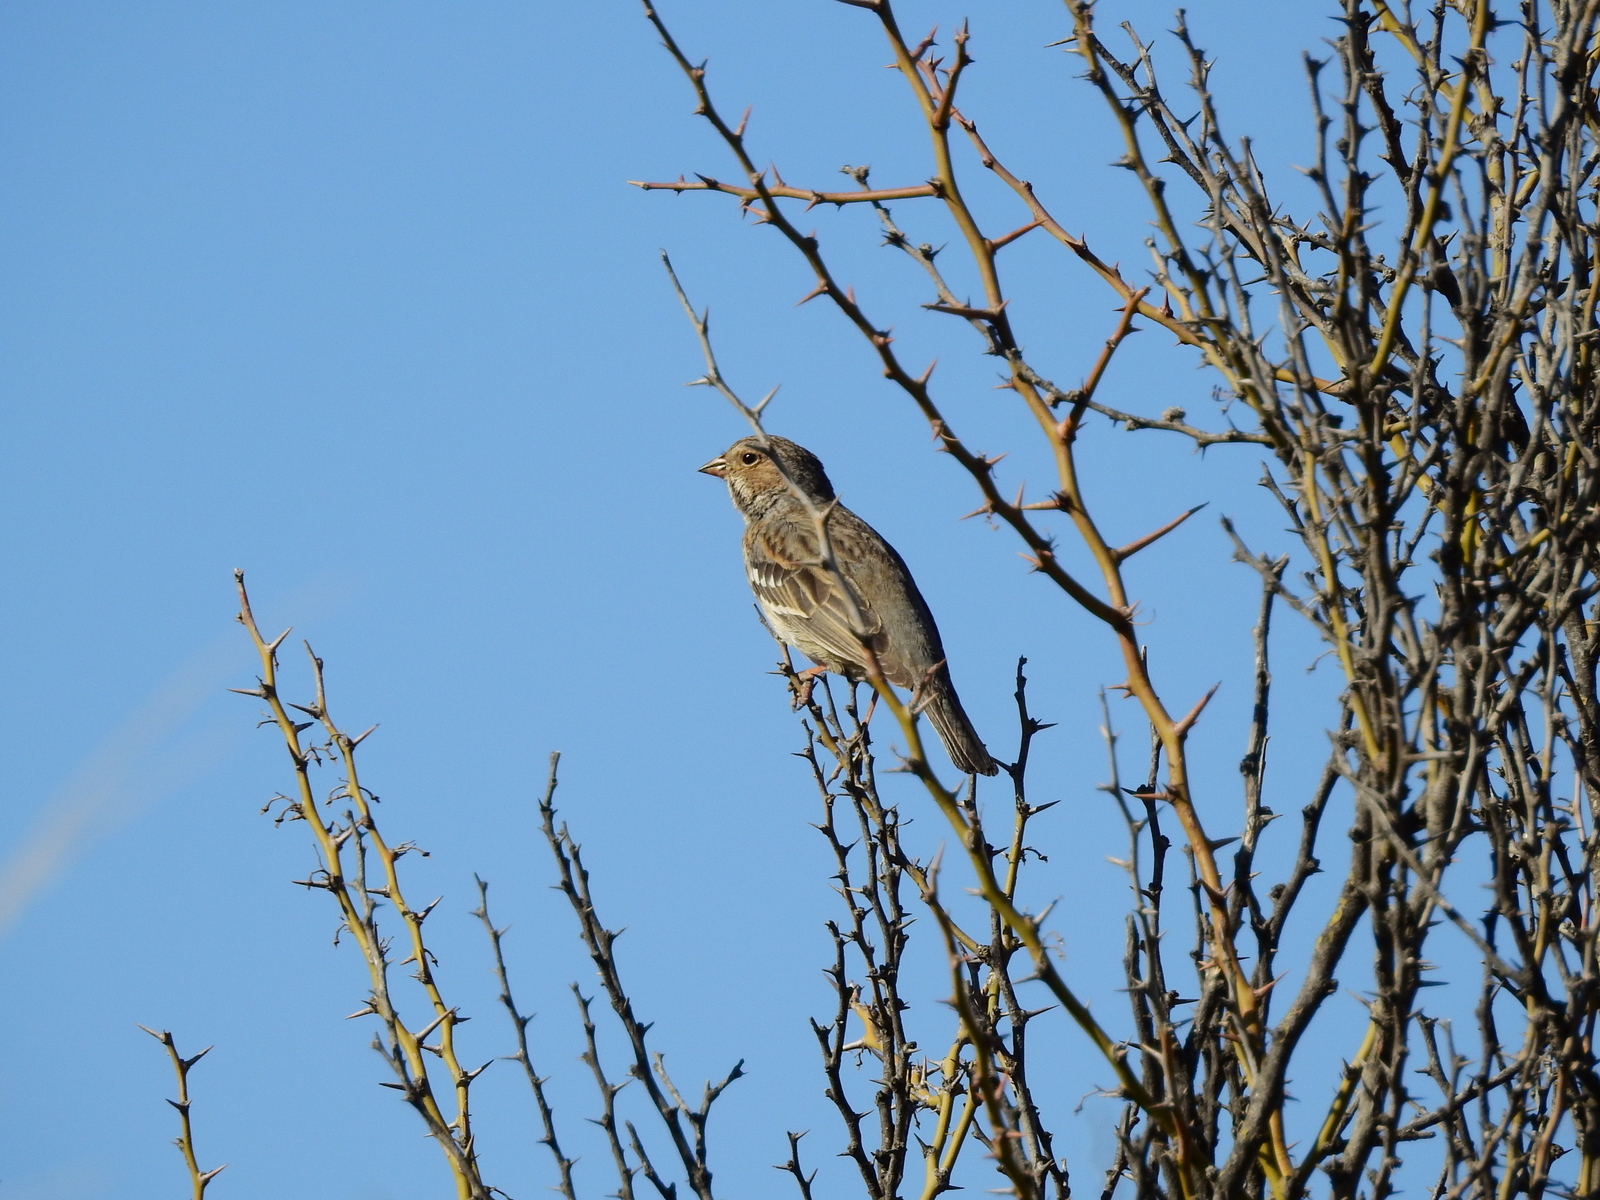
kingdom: Animalia
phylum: Chordata
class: Aves
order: Passeriformes
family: Thraupidae
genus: Rhopospina
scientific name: Rhopospina fruticeti
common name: Mourning sierra finch
